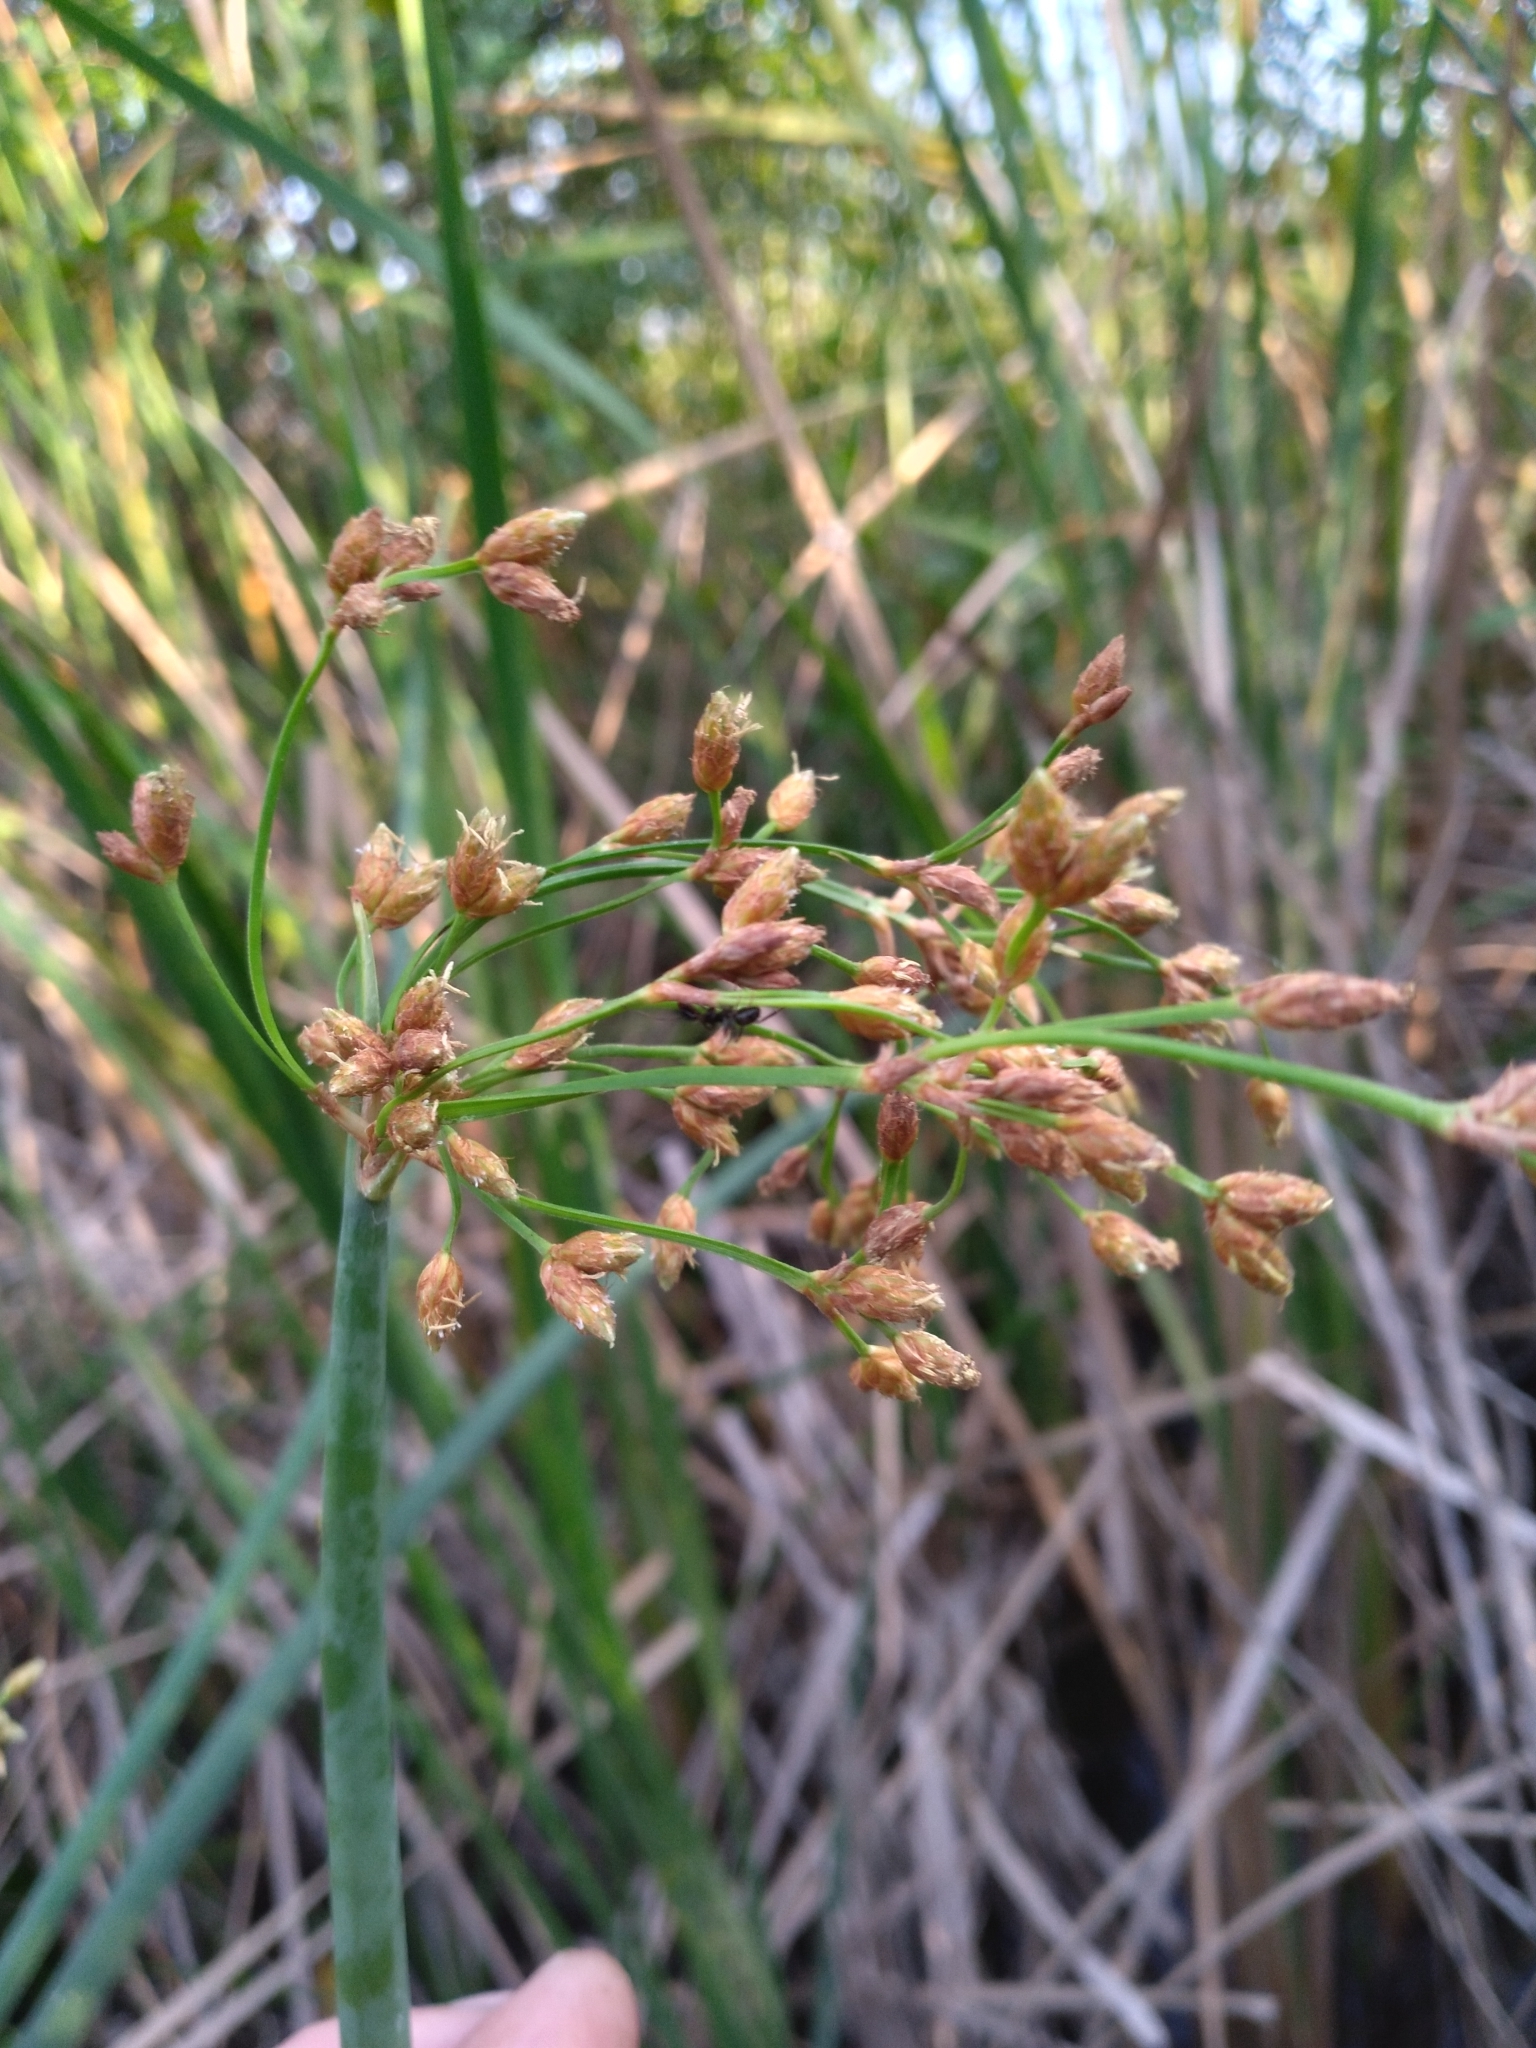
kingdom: Plantae
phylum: Tracheophyta
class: Liliopsida
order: Poales
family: Cyperaceae
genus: Schoenoplectus
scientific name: Schoenoplectus tabernaemontani
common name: Grey club-rush
